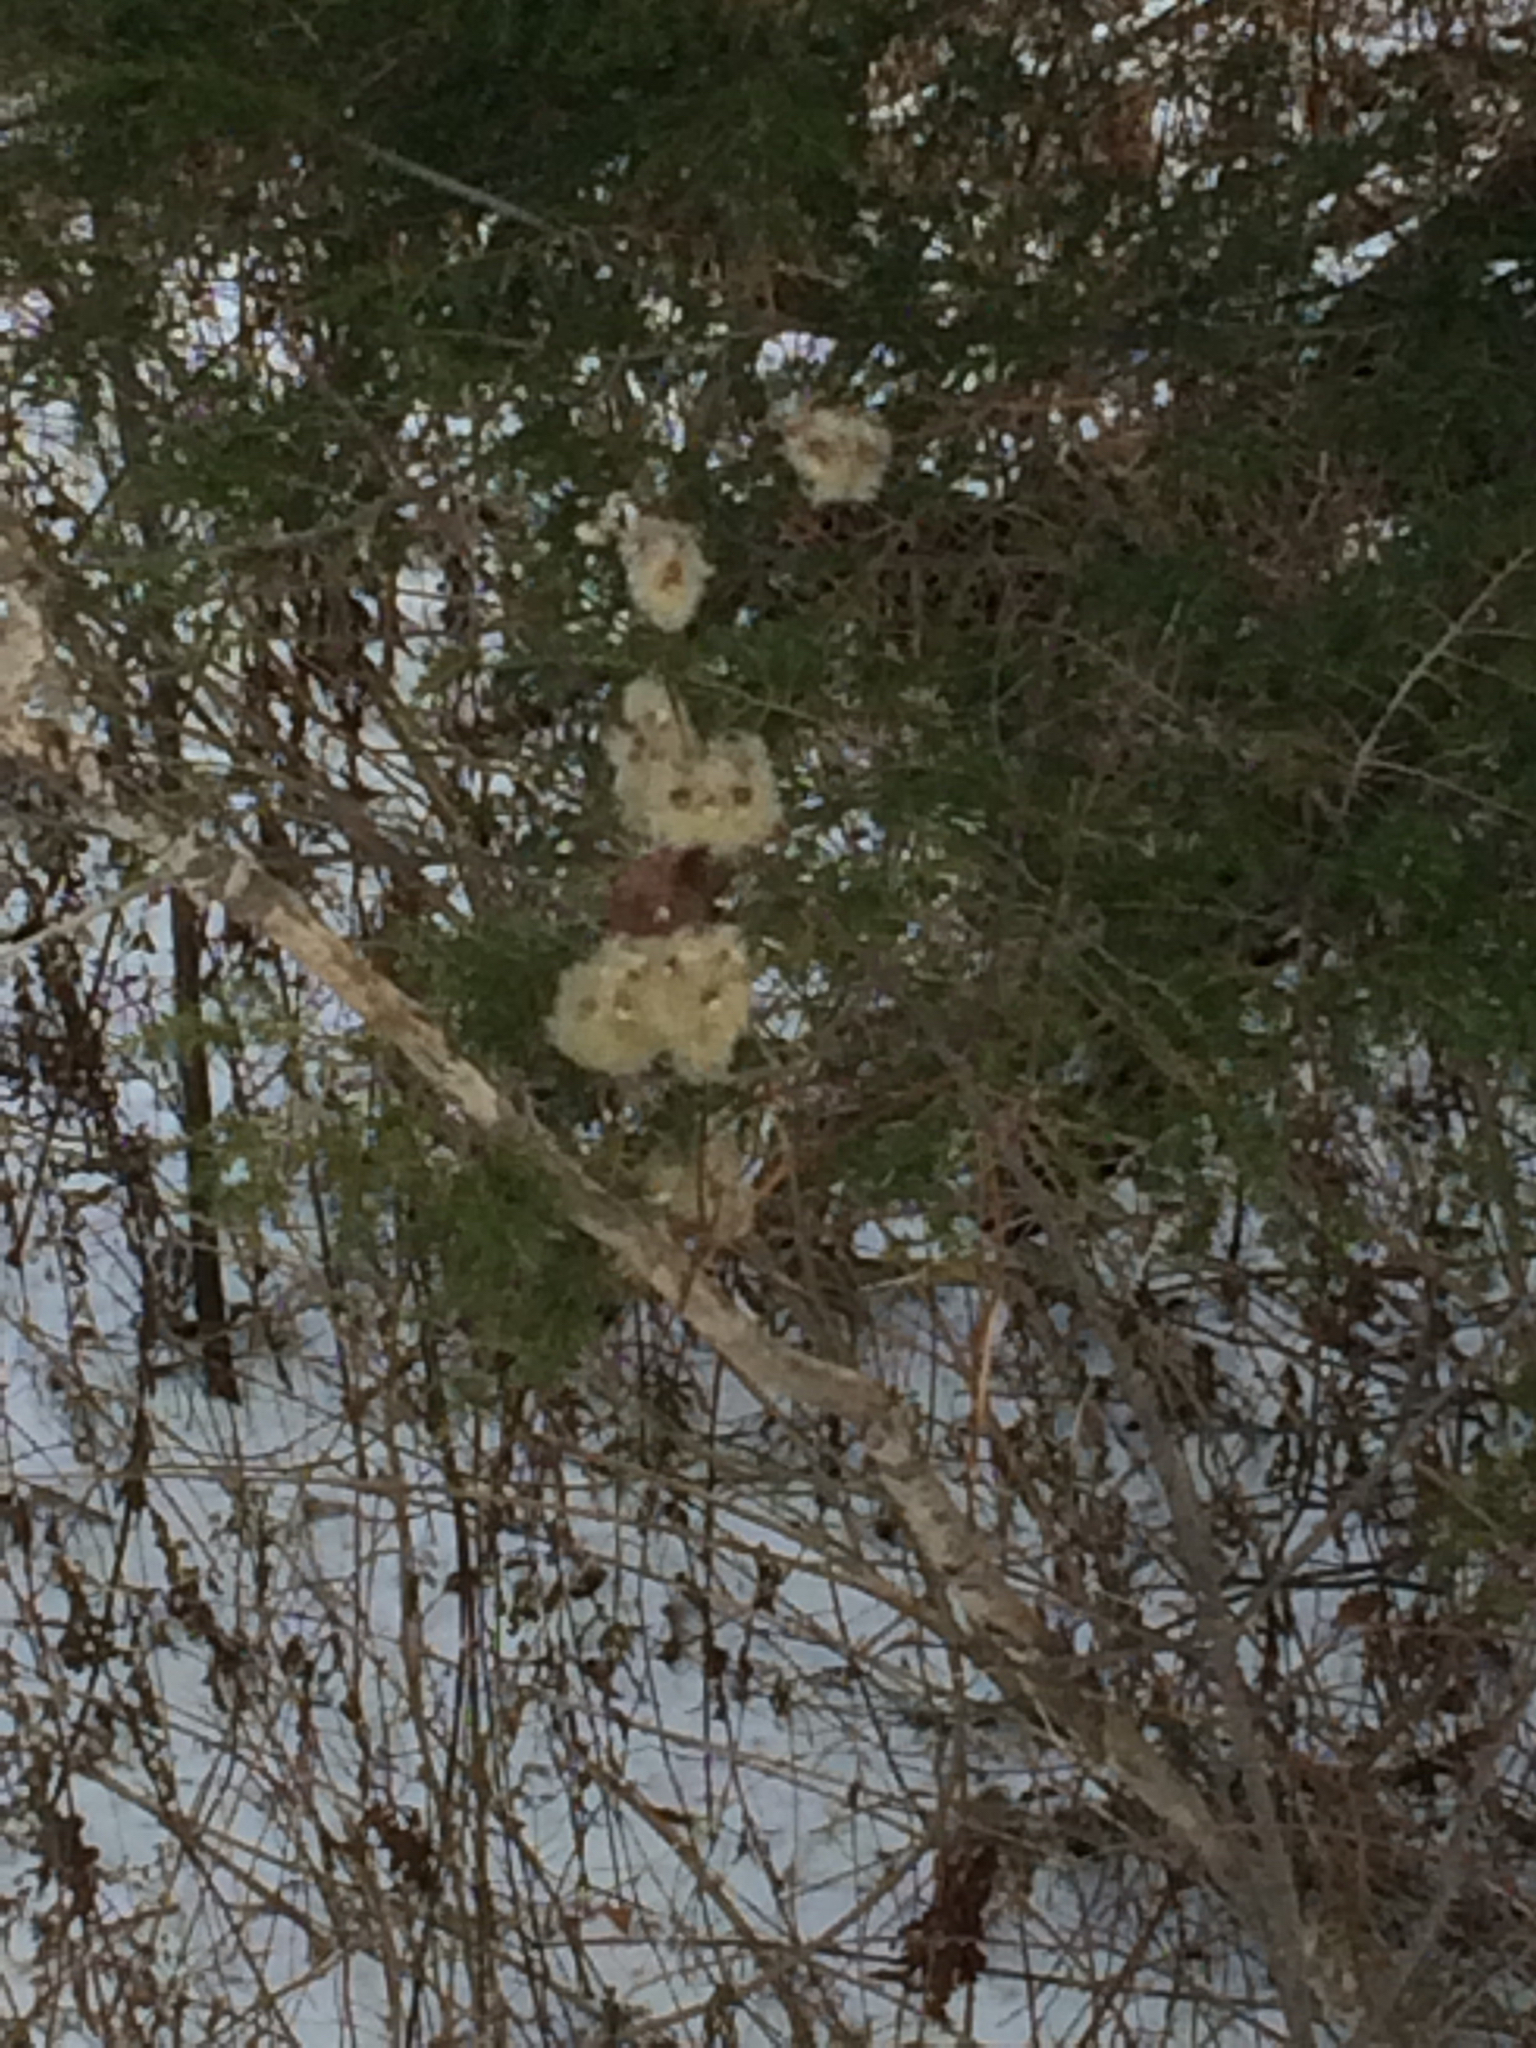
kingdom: Plantae
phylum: Tracheophyta
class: Magnoliopsida
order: Ranunculales
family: Ranunculaceae
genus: Clematis
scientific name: Clematis virginiana
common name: Virgin's-bower
